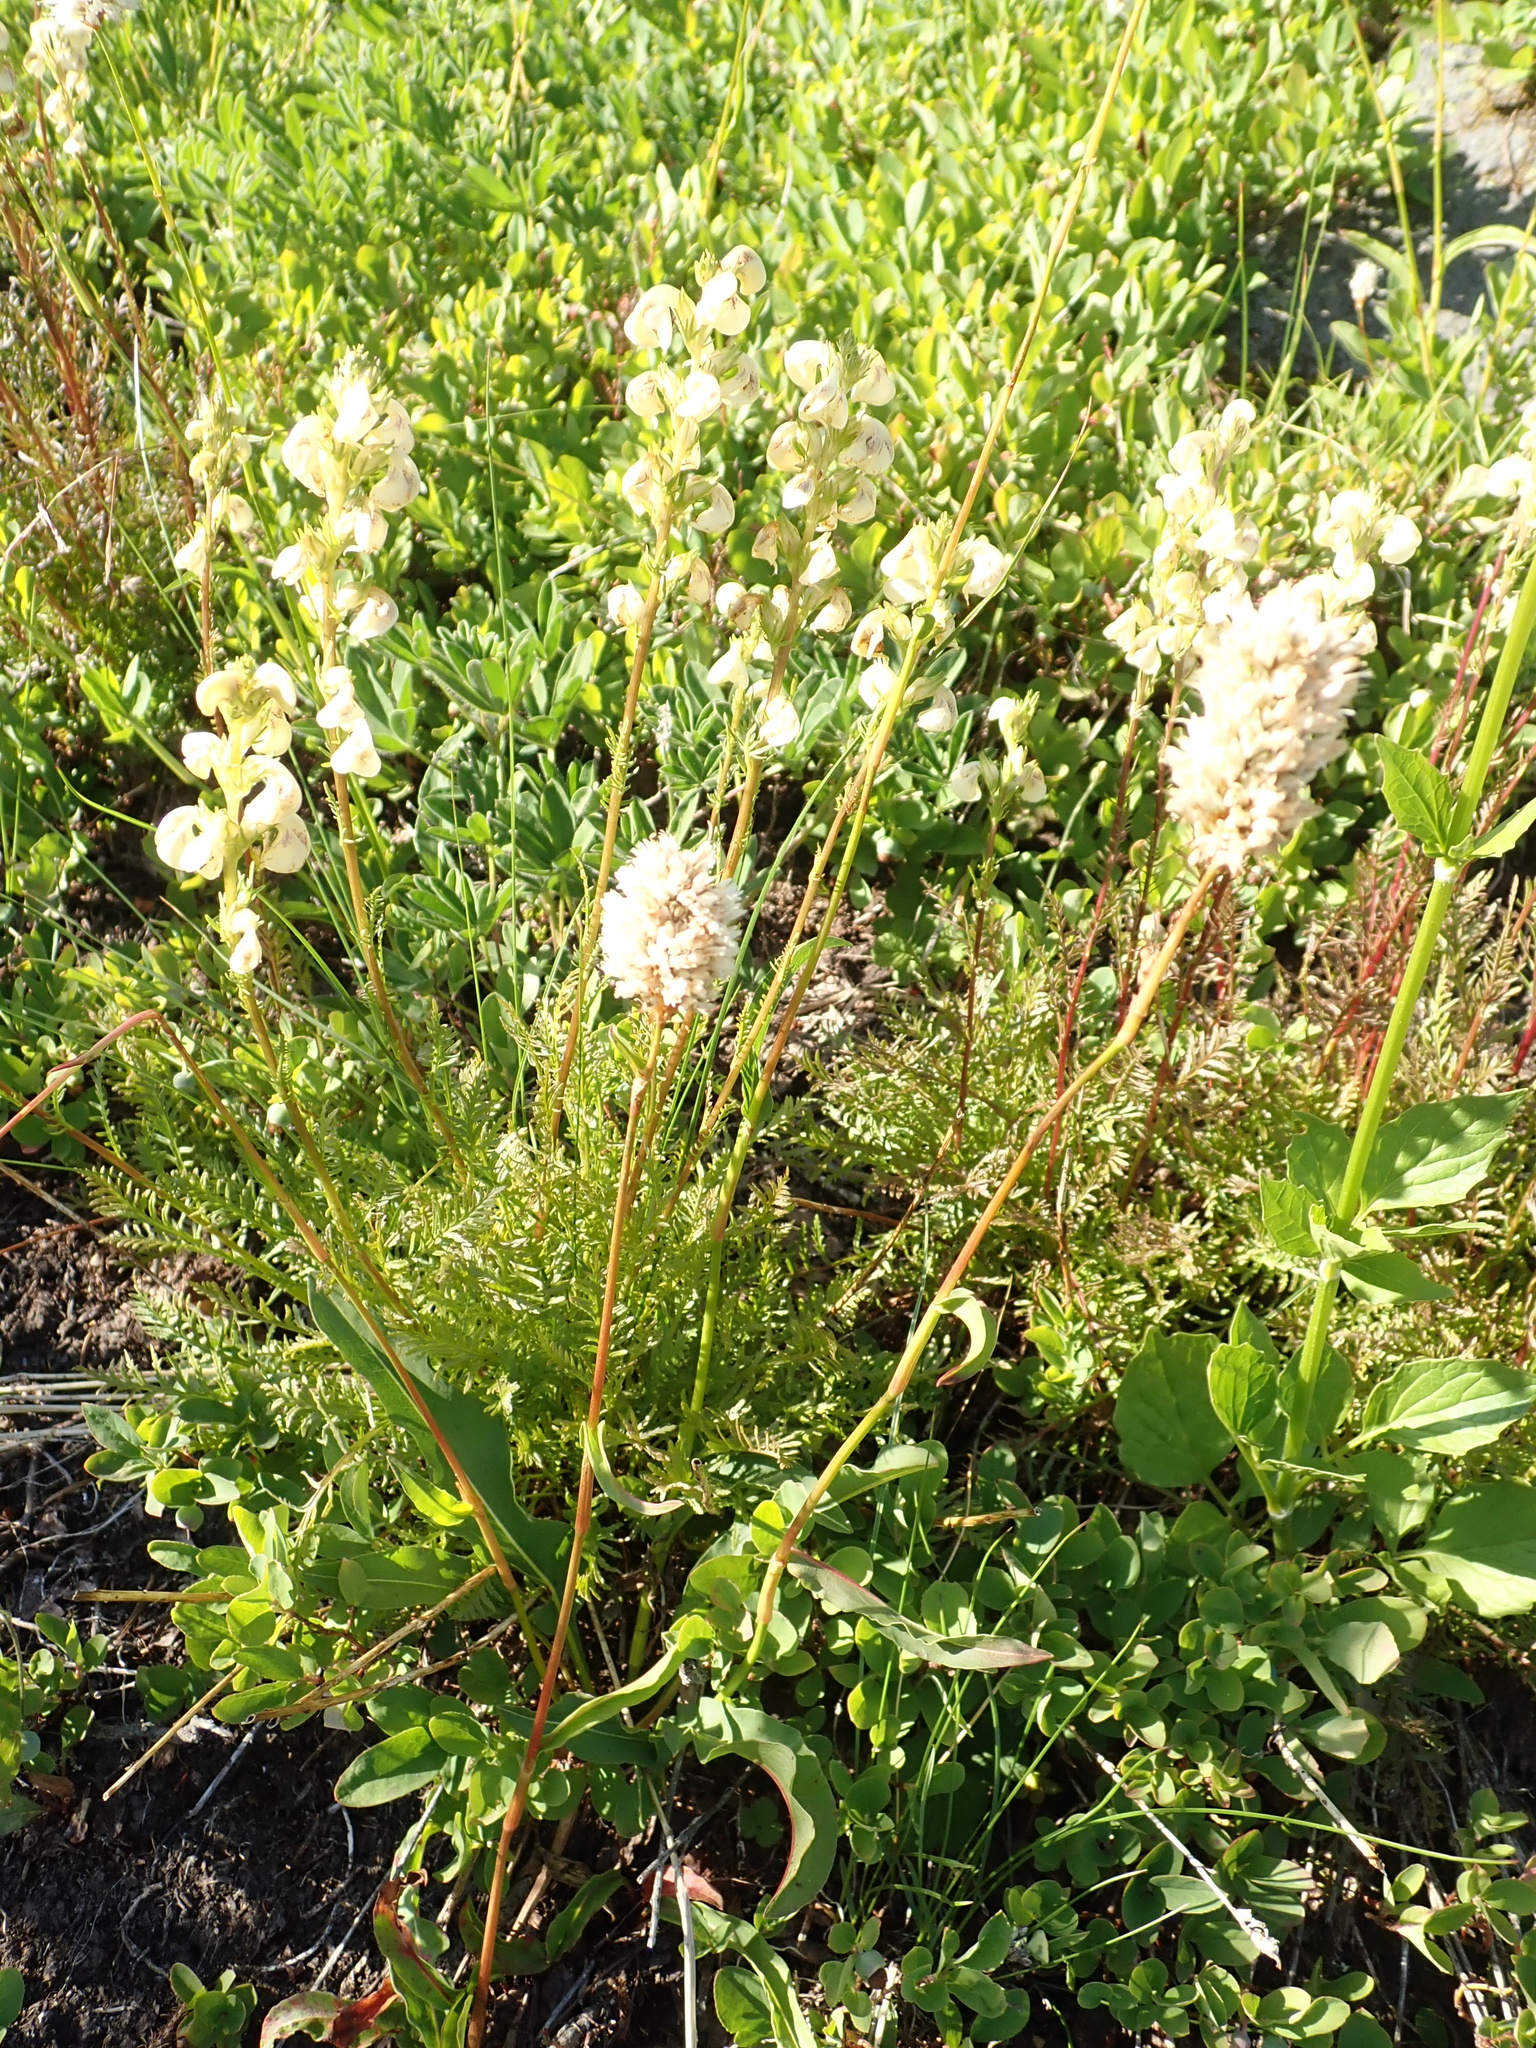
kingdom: Plantae
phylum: Tracheophyta
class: Magnoliopsida
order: Caryophyllales
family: Polygonaceae
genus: Bistorta
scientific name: Bistorta bistortoides
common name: American bistort
